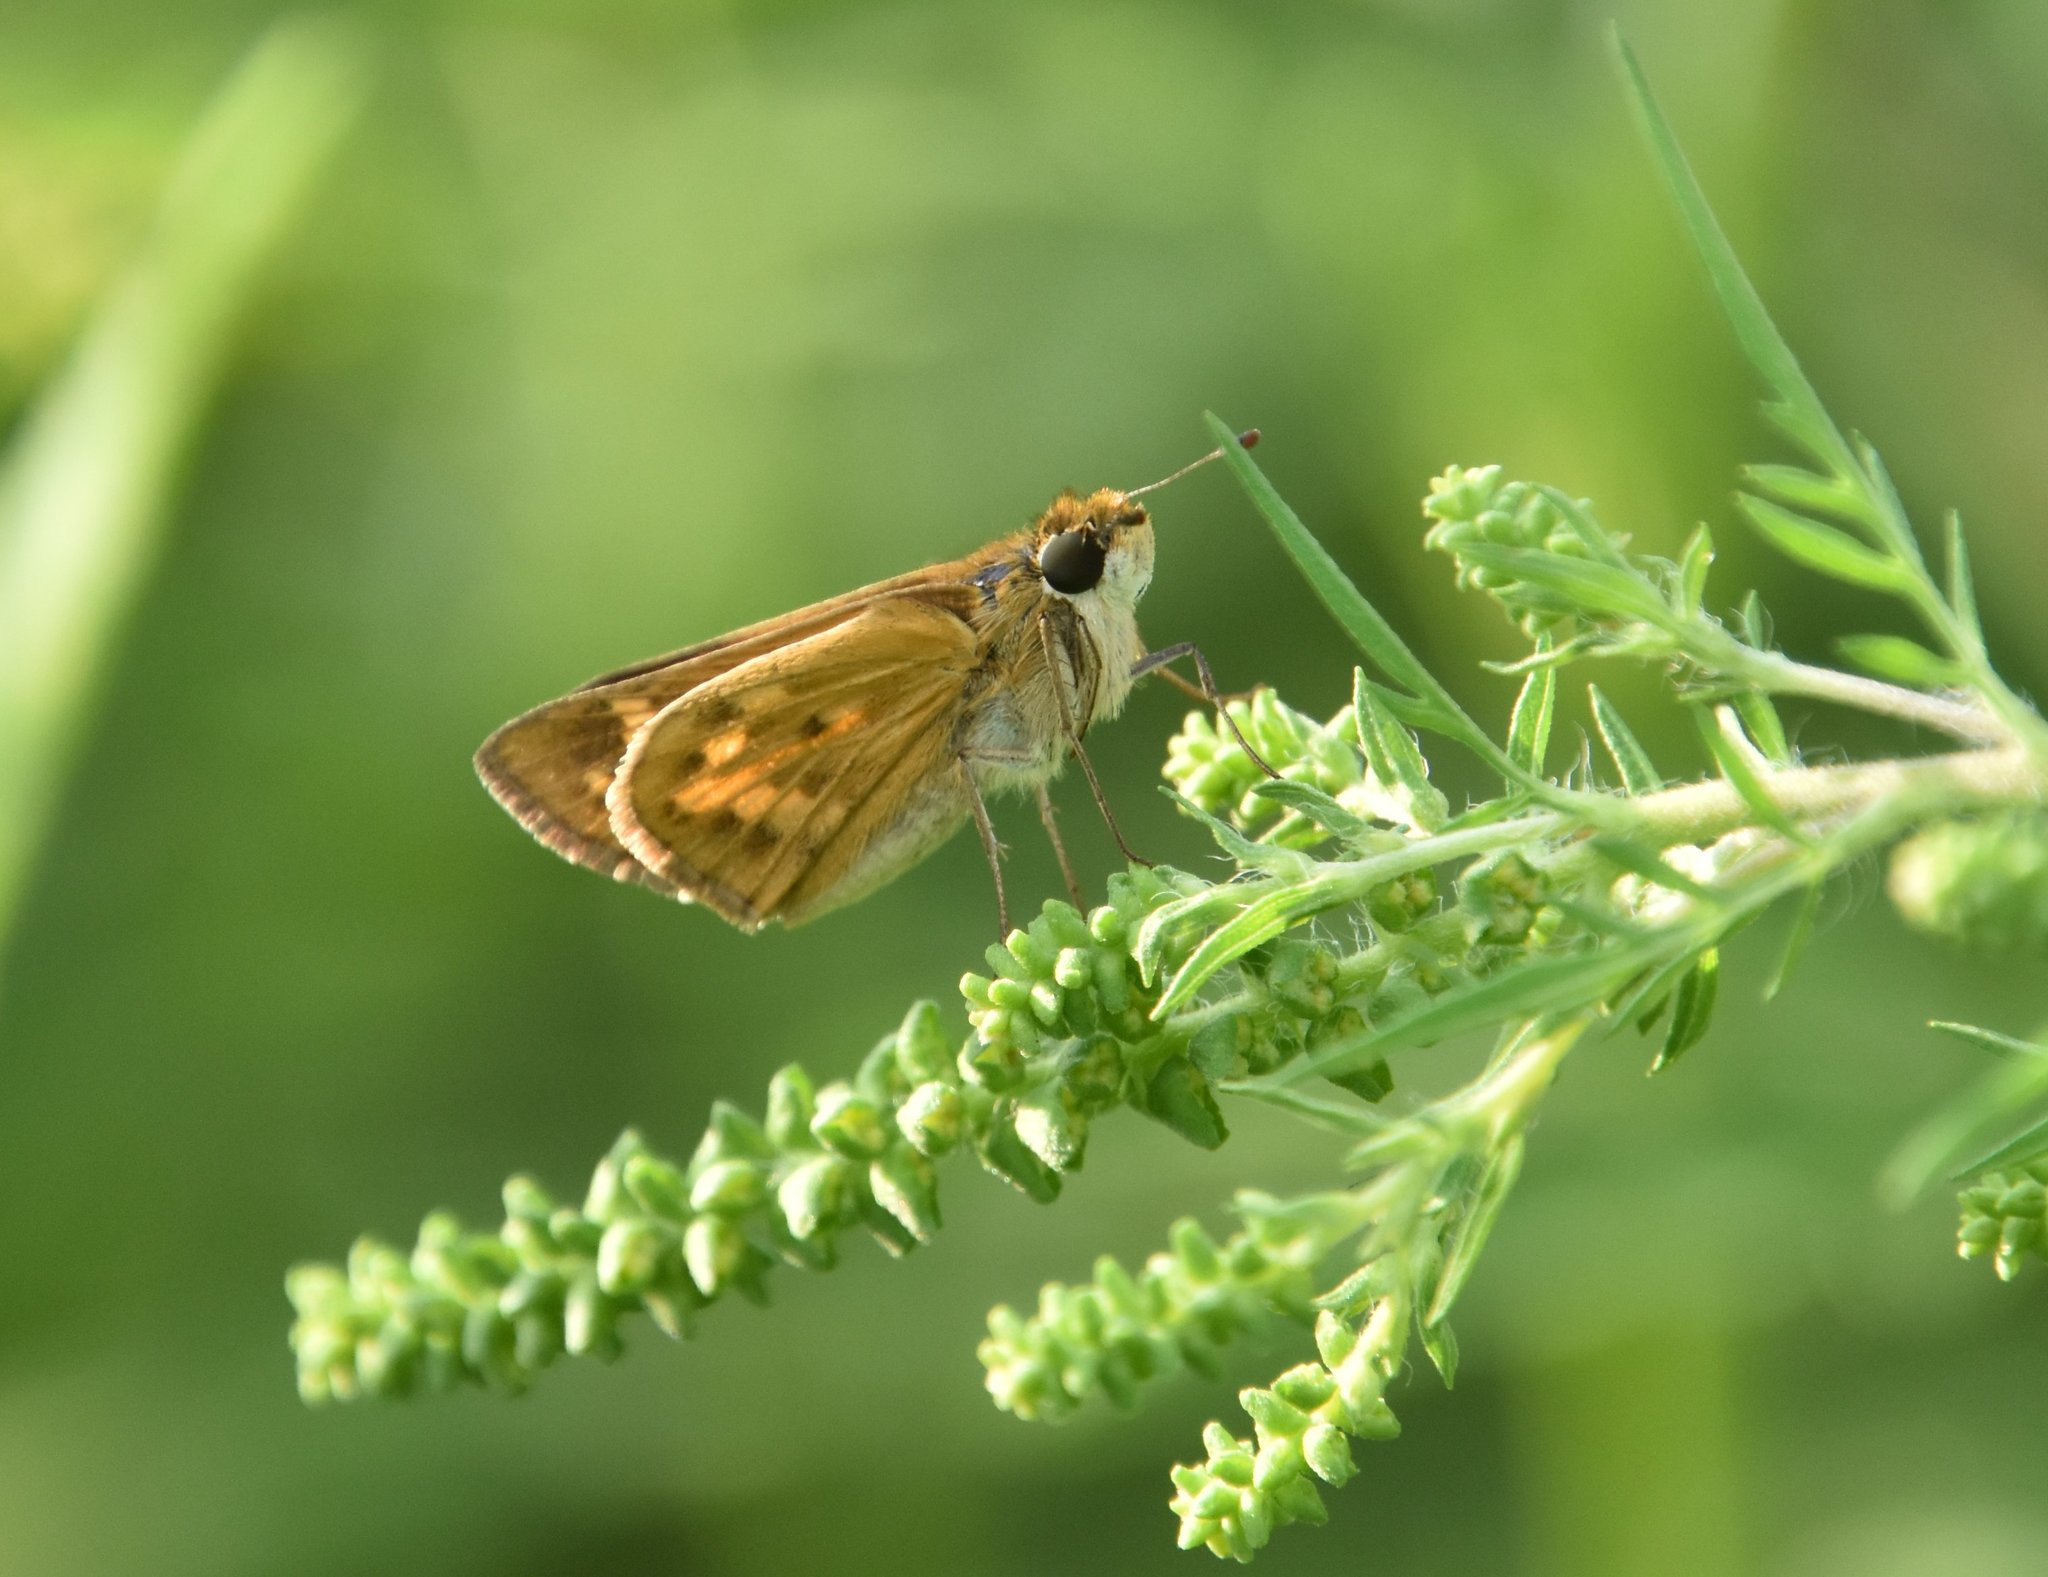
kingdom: Animalia
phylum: Arthropoda
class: Insecta
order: Lepidoptera
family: Hesperiidae
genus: Hylephila
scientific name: Hylephila phyleus
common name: Fiery skipper
